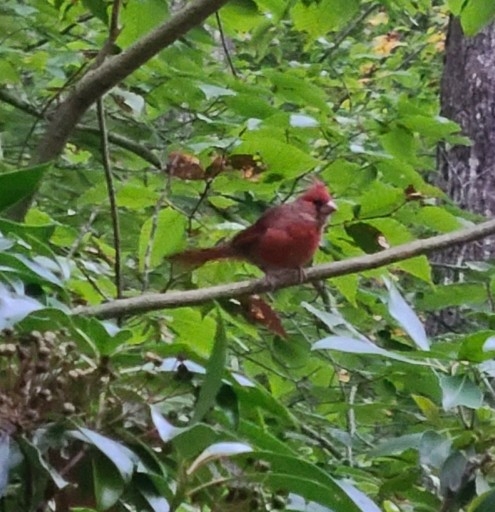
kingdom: Animalia
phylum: Chordata
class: Aves
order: Passeriformes
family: Cardinalidae
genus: Cardinalis
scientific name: Cardinalis cardinalis
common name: Northern cardinal
